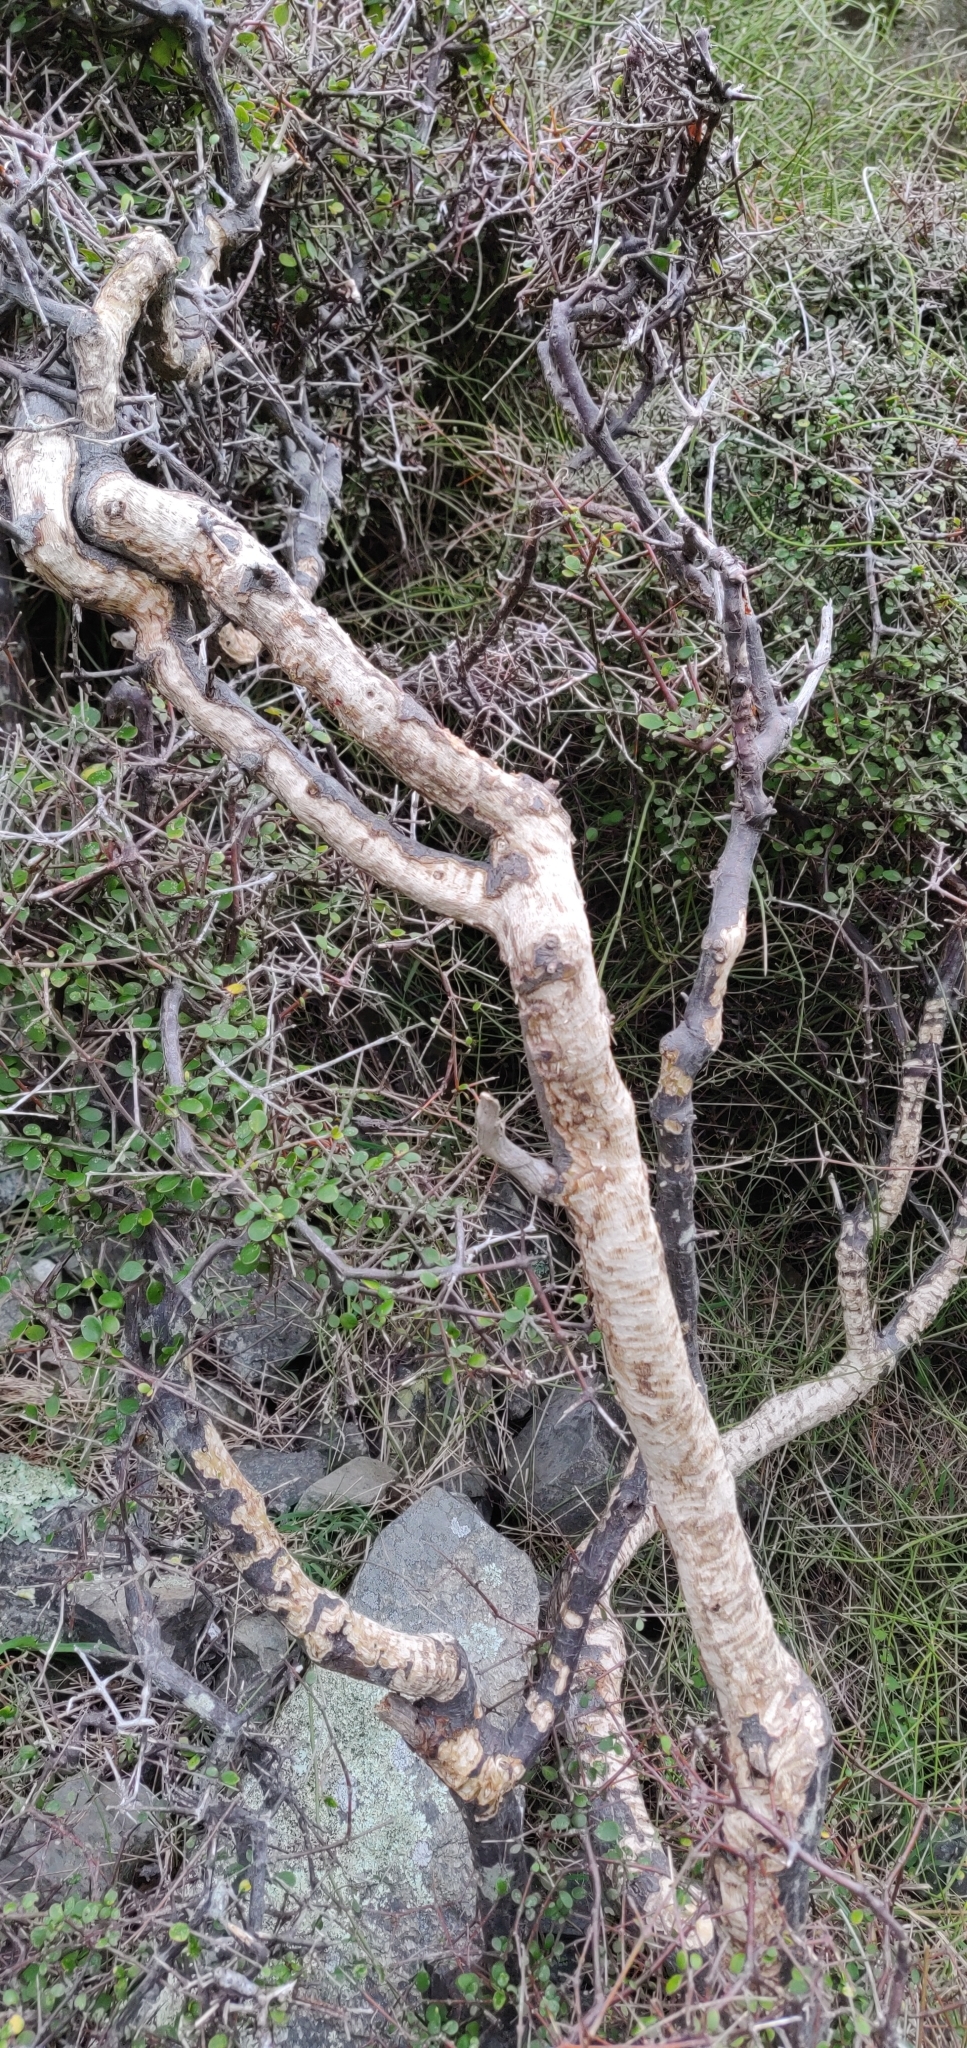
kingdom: Animalia
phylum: Chordata
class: Mammalia
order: Artiodactyla
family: Bovidae
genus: Capra
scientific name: Capra hircus
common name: Domestic goat
